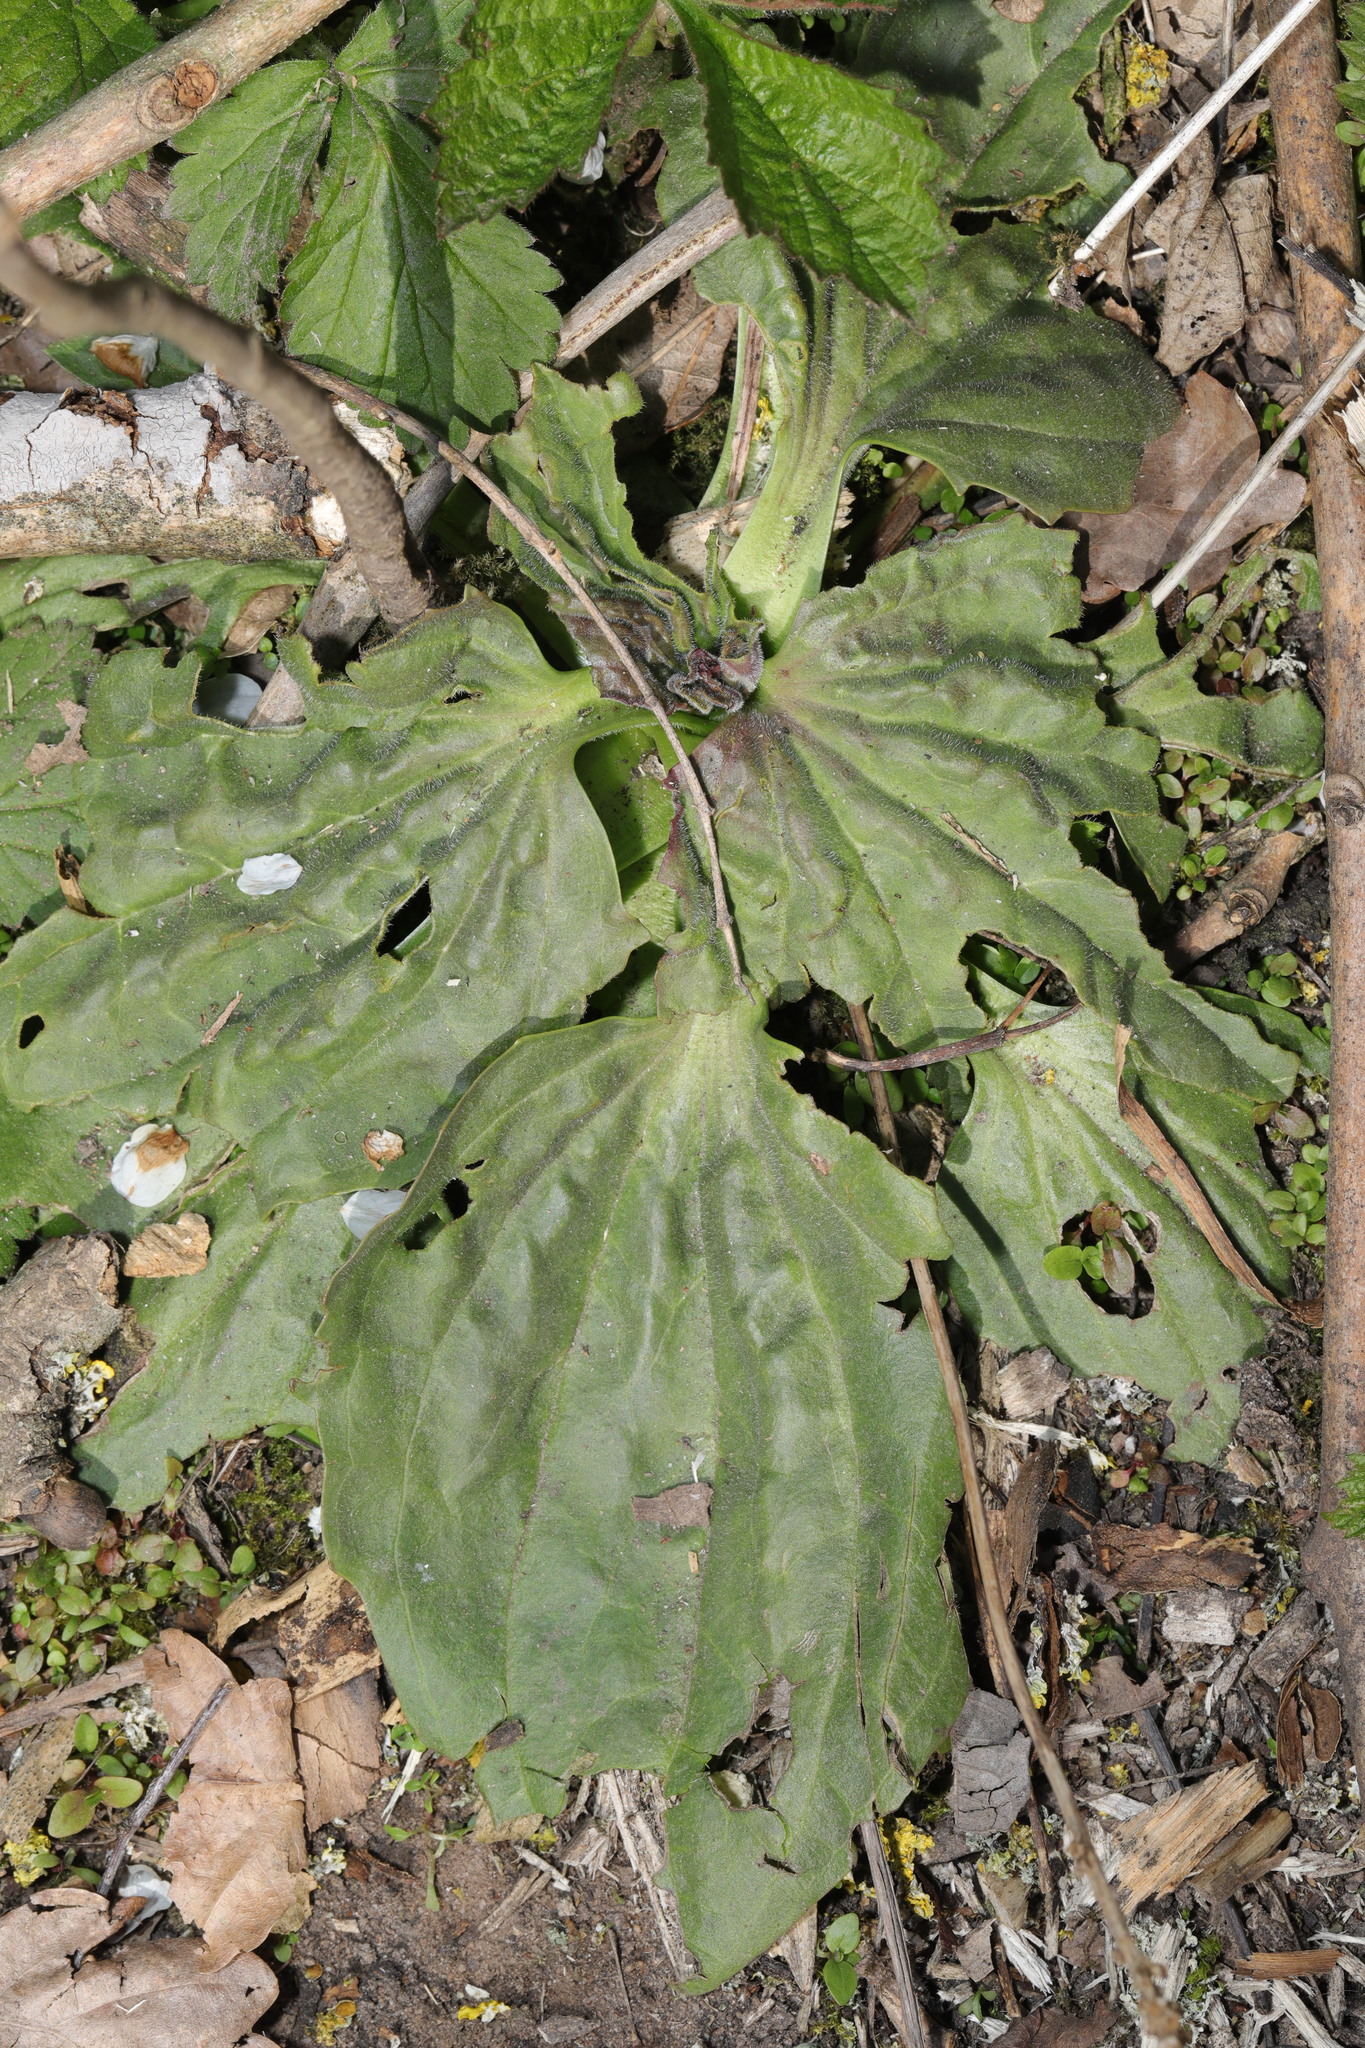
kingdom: Plantae
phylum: Tracheophyta
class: Magnoliopsida
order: Lamiales
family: Plantaginaceae
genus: Plantago
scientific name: Plantago major
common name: Common plantain
